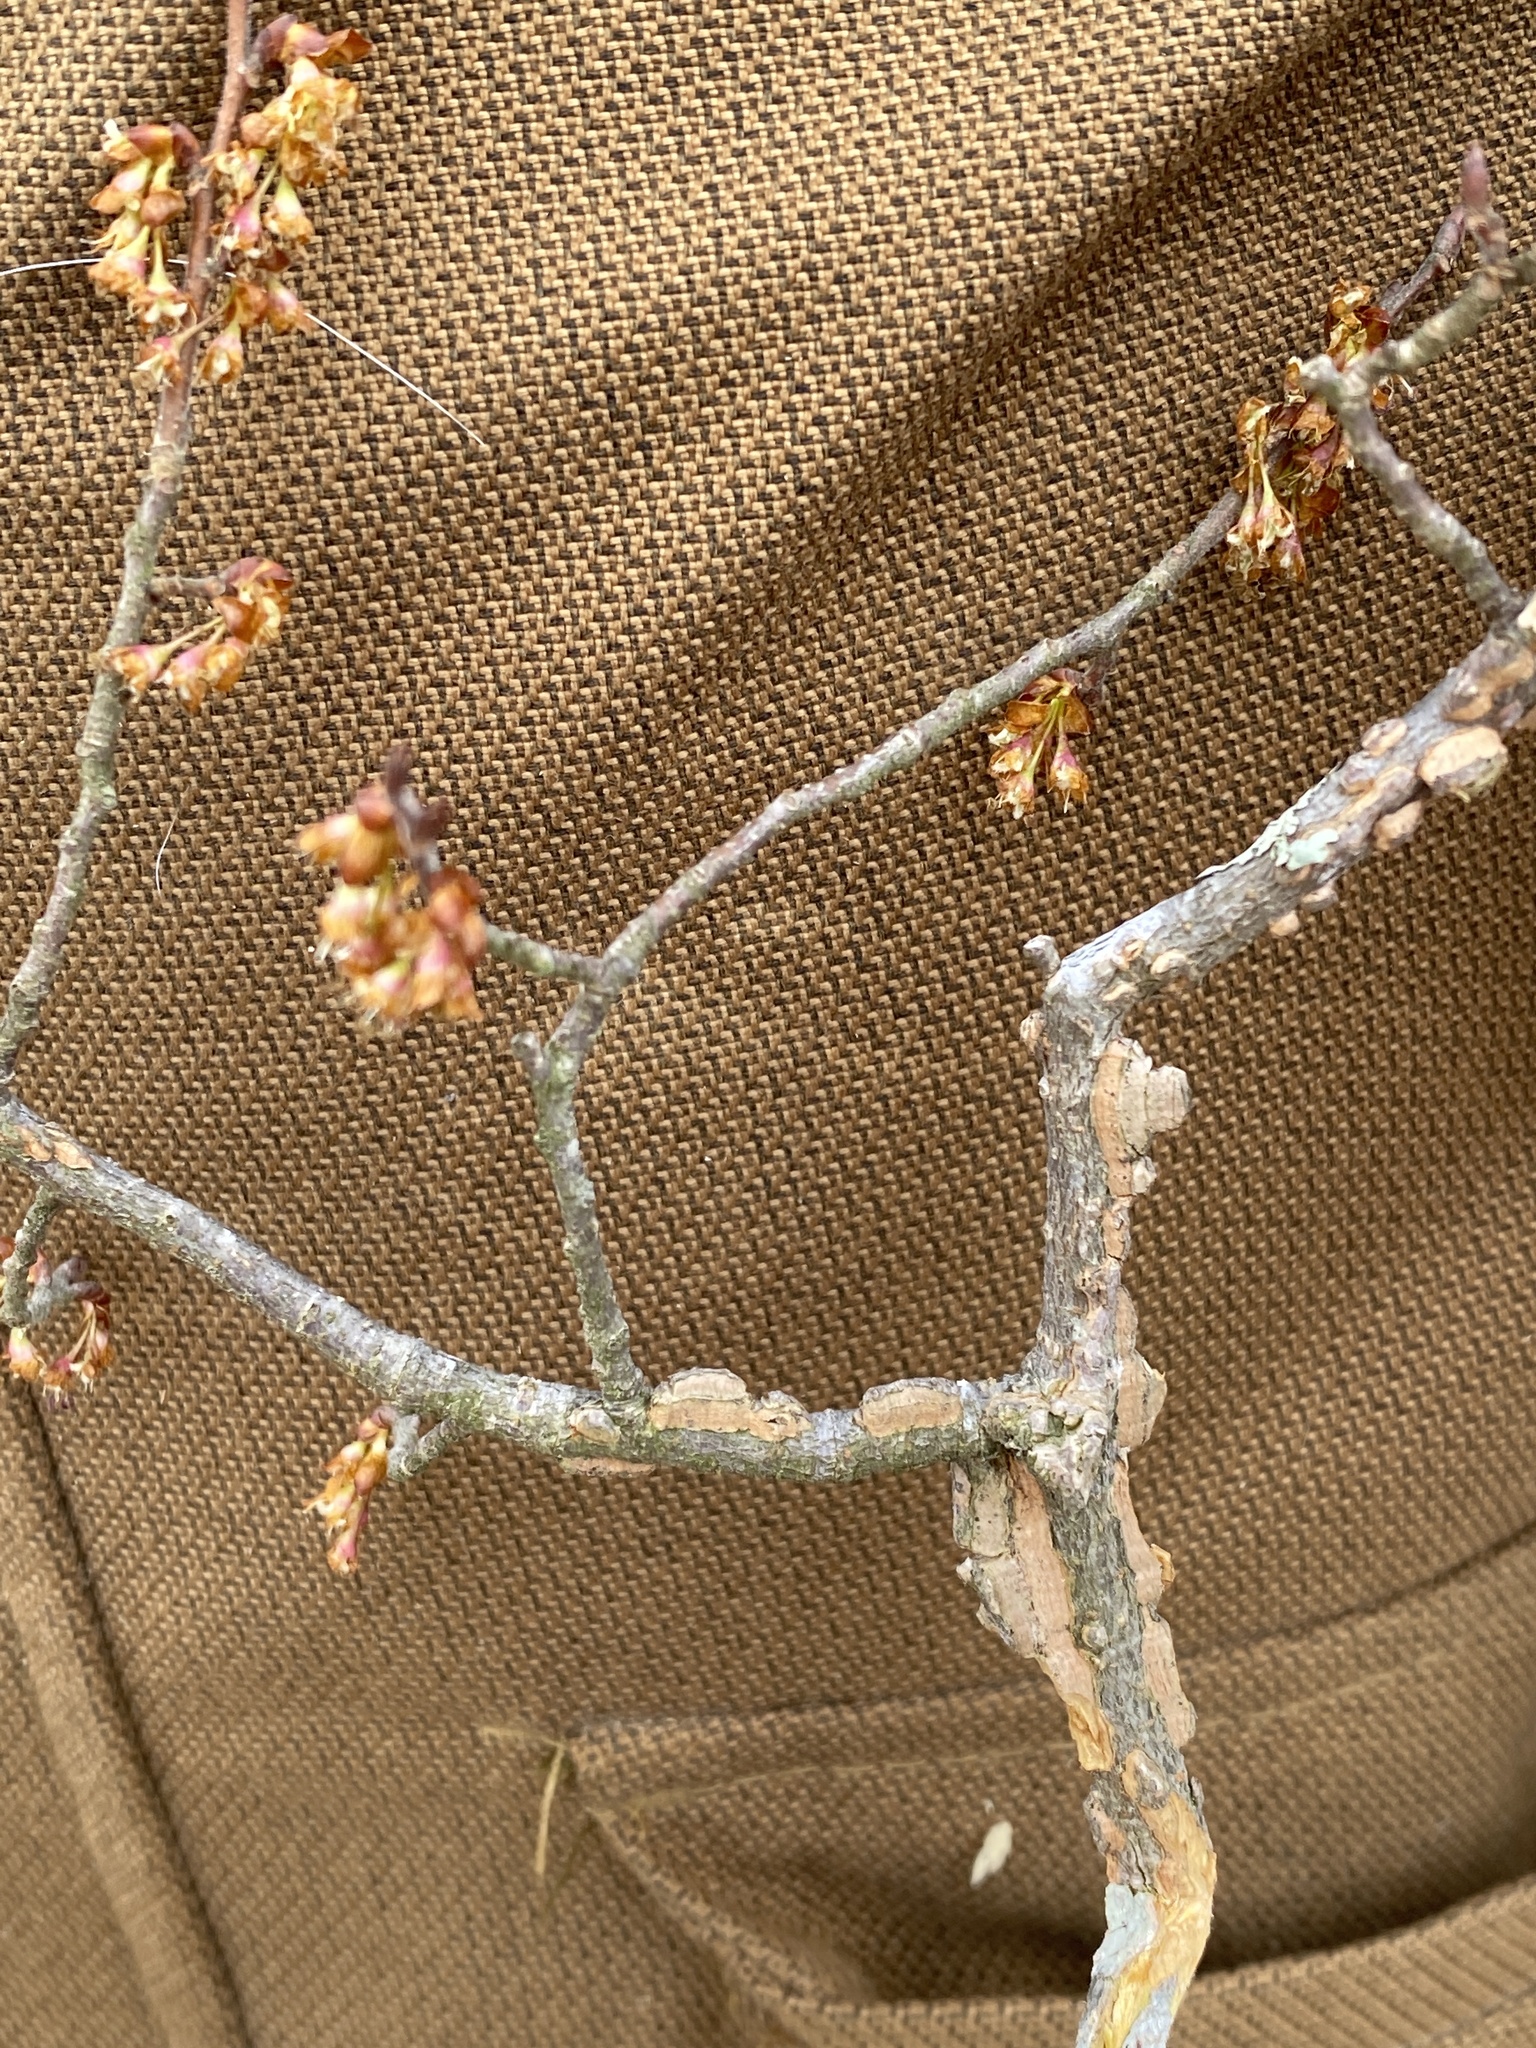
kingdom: Plantae
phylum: Tracheophyta
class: Magnoliopsida
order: Rosales
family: Ulmaceae
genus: Ulmus
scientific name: Ulmus alata
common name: Winged elm
